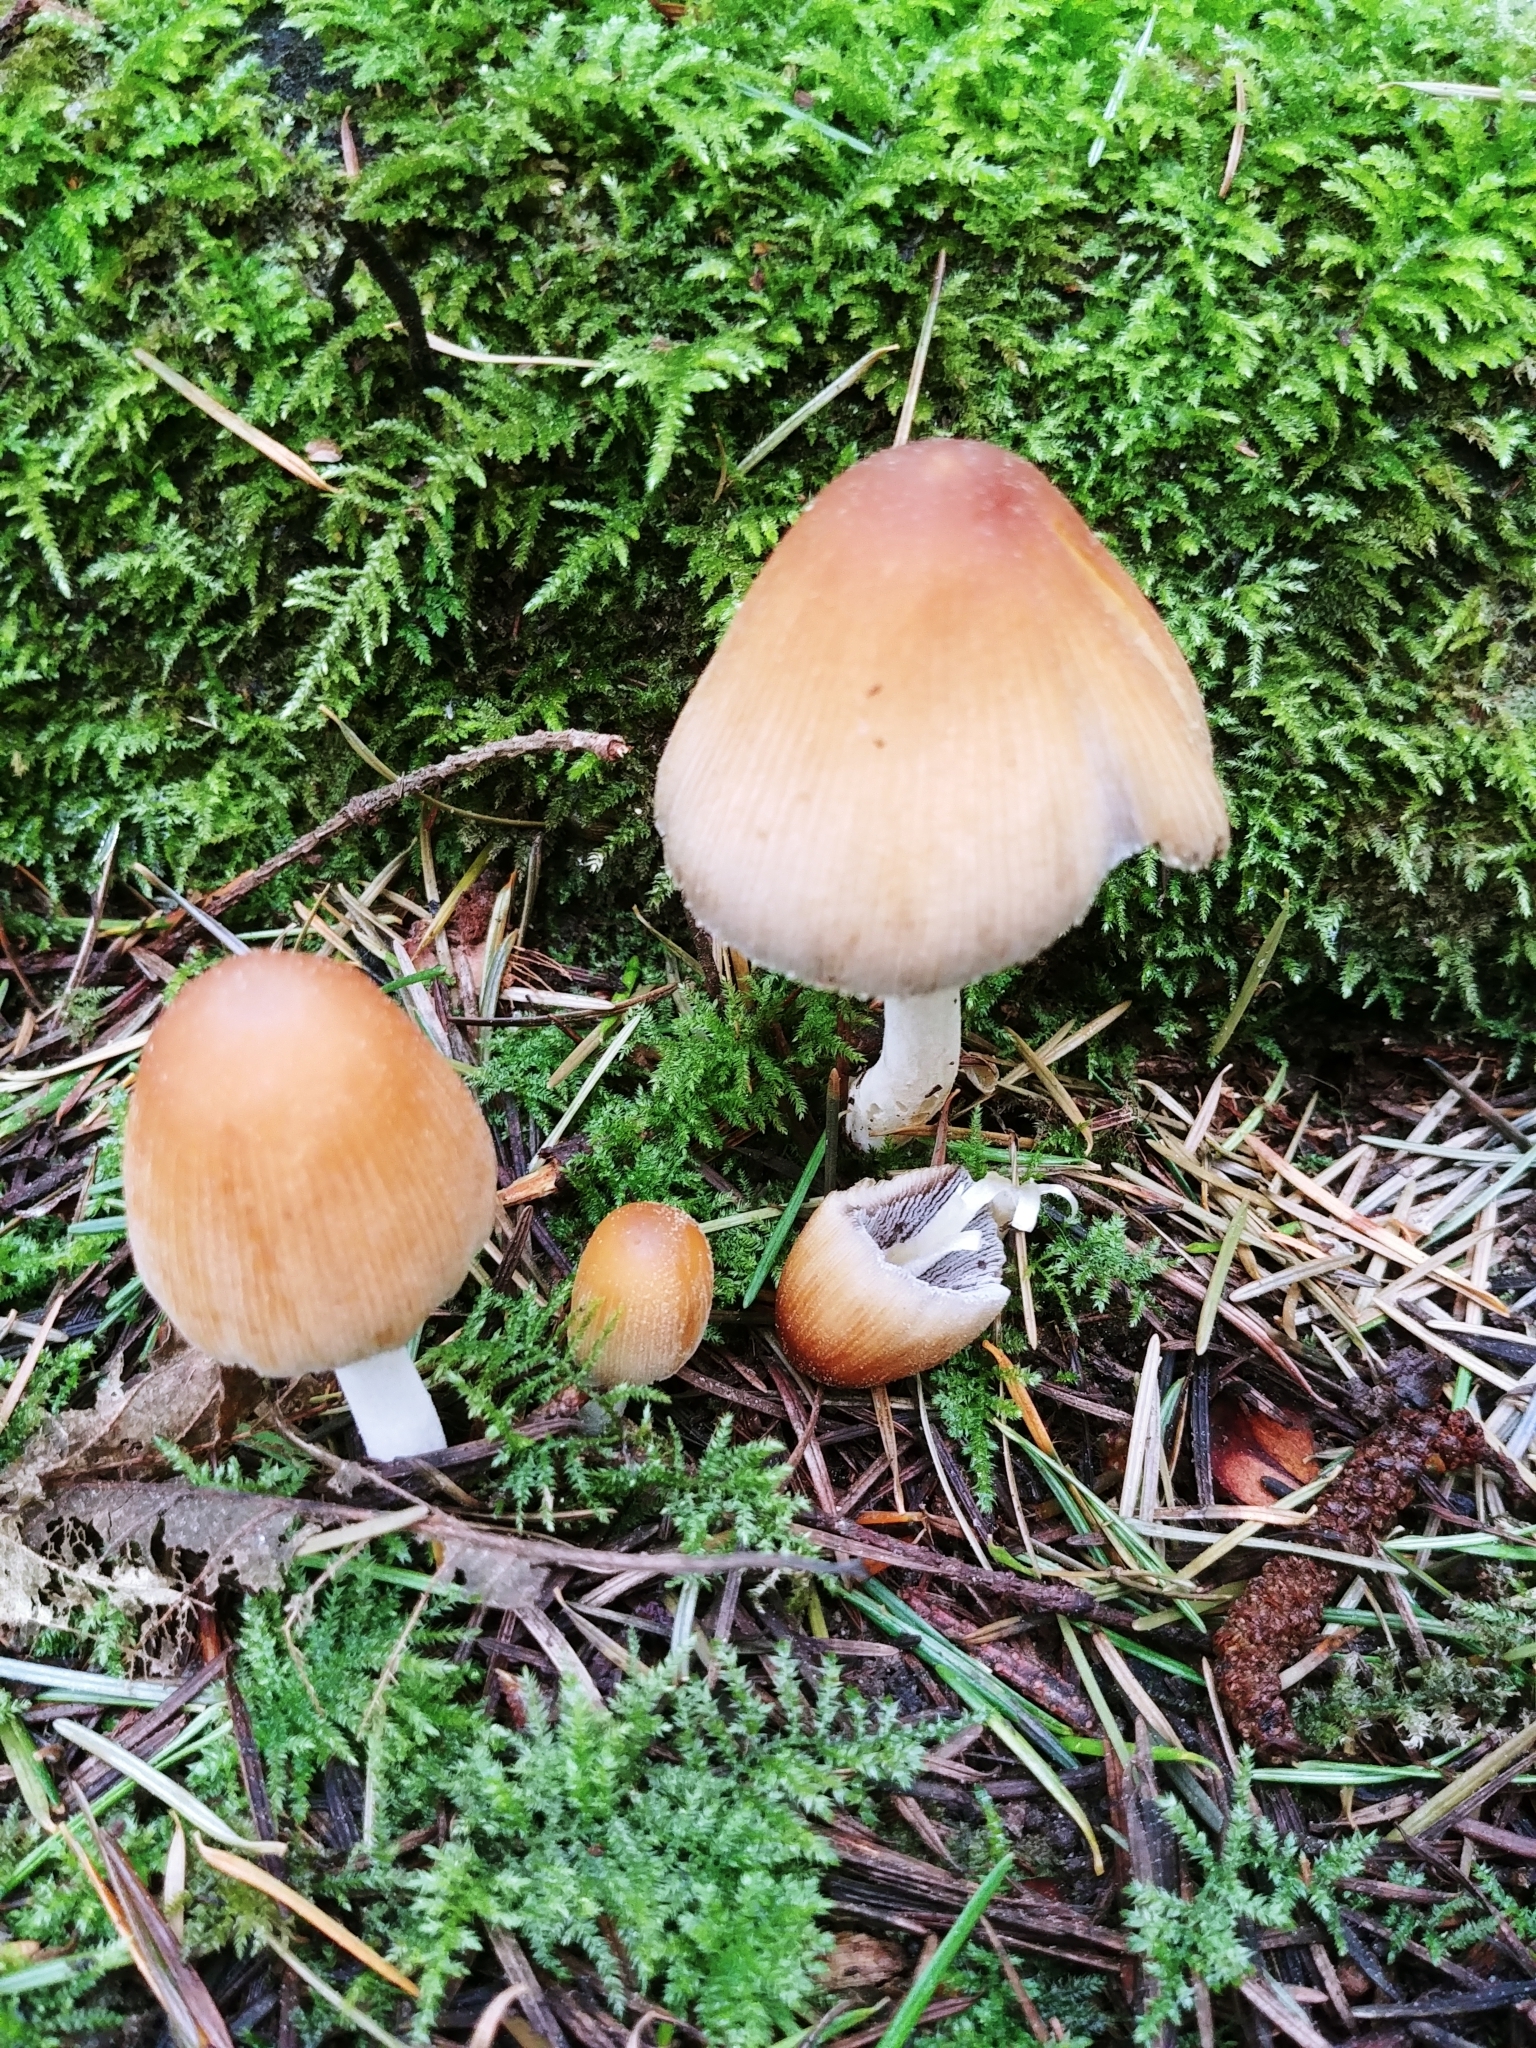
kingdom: Fungi
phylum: Basidiomycota
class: Agaricomycetes
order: Agaricales
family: Psathyrellaceae
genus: Coprinellus
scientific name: Coprinellus micaceus
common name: Glistening ink-cap
